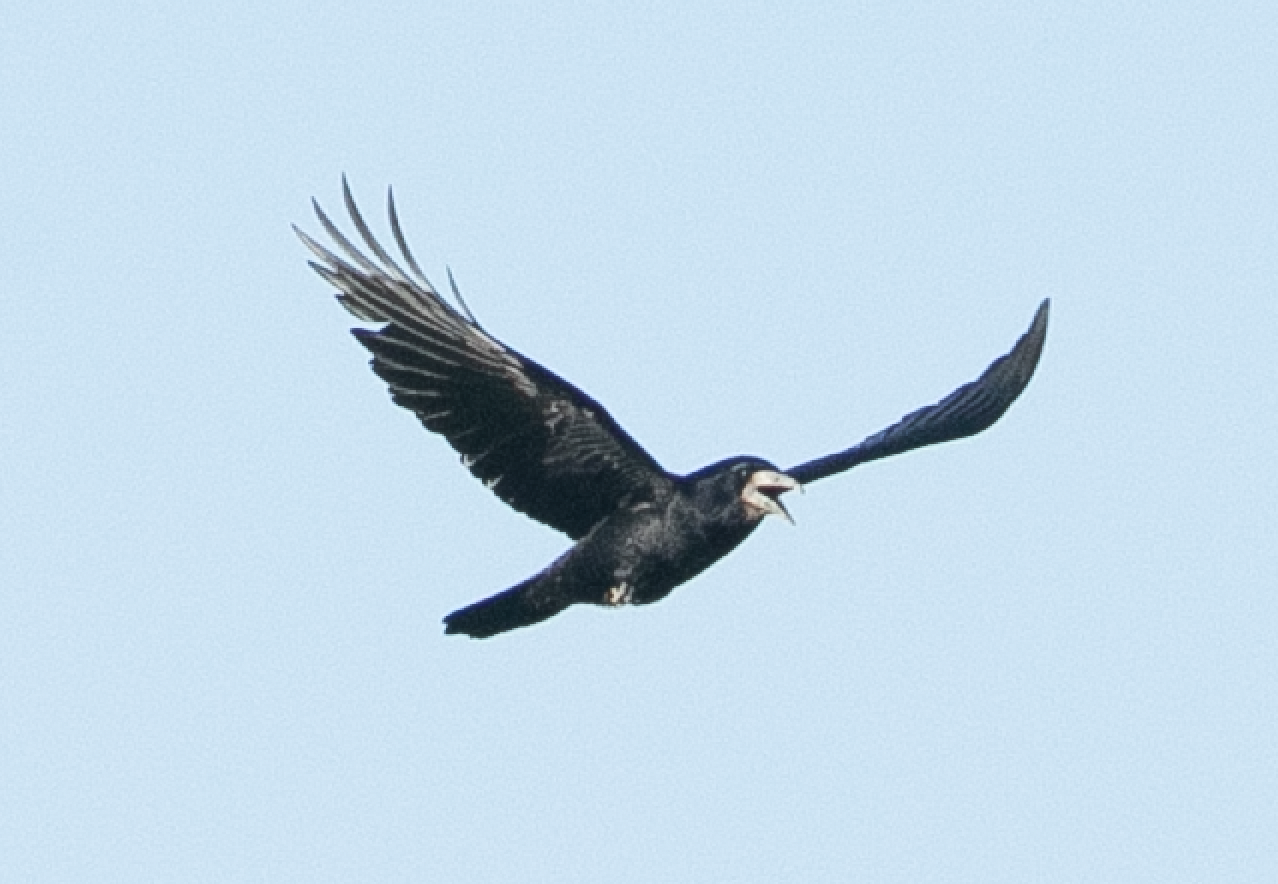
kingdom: Animalia
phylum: Chordata
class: Aves
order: Passeriformes
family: Corvidae
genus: Corvus
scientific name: Corvus frugilegus
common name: Rook
